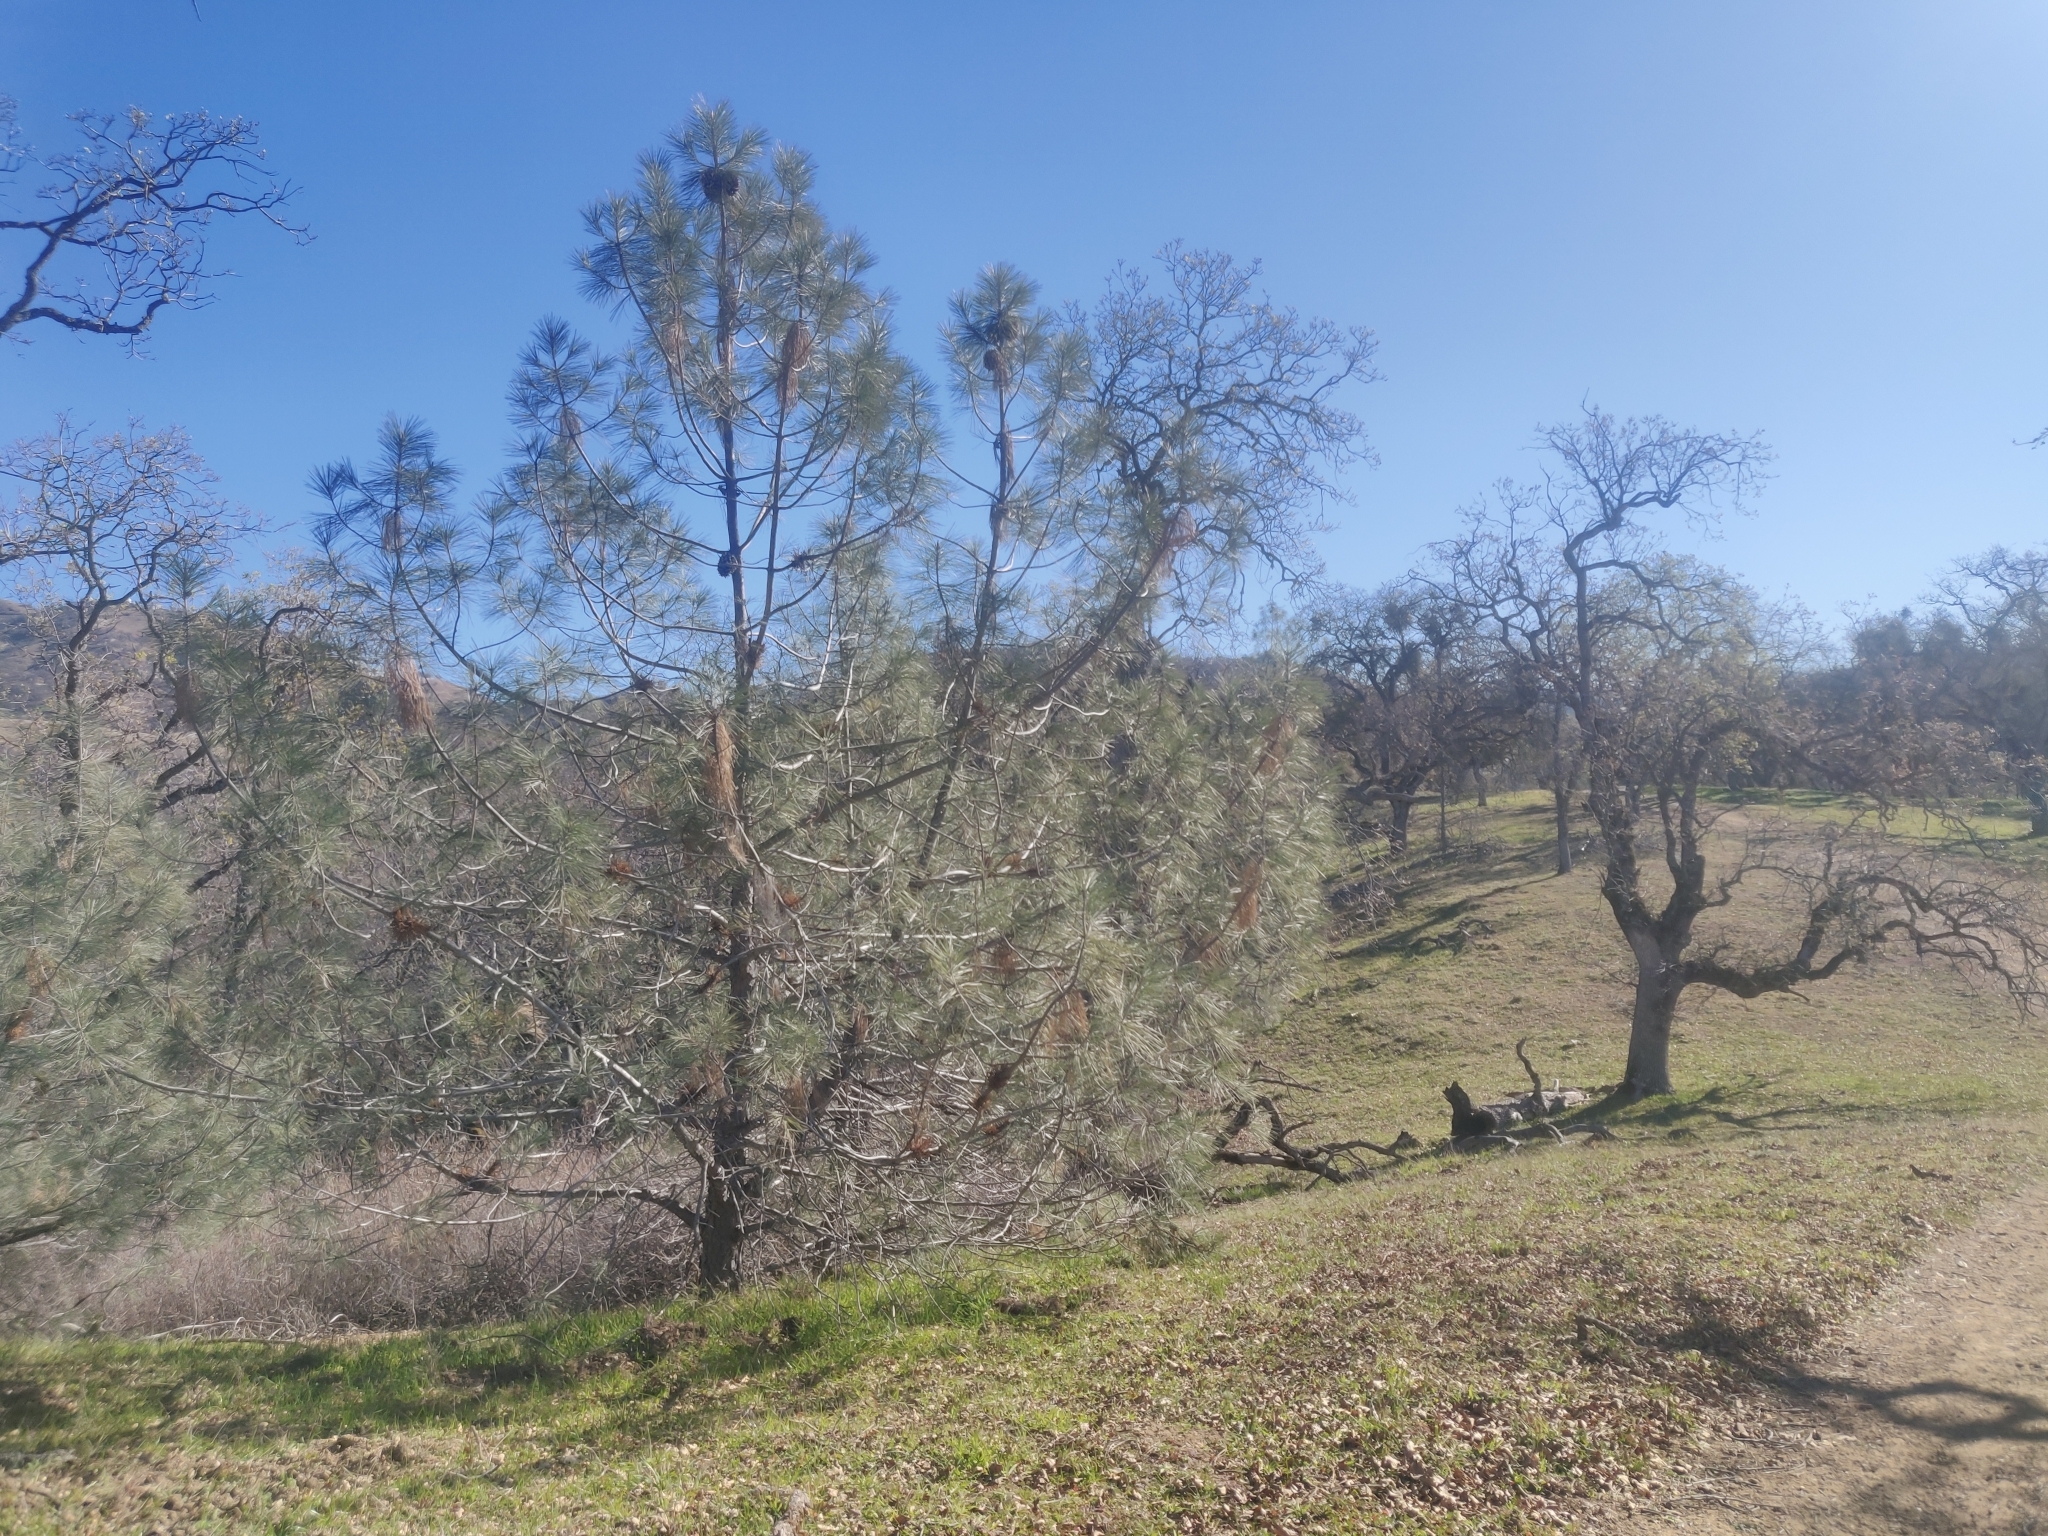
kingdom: Plantae
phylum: Tracheophyta
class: Magnoliopsida
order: Santalales
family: Viscaceae
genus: Arceuthobium
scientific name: Arceuthobium campylopodum
